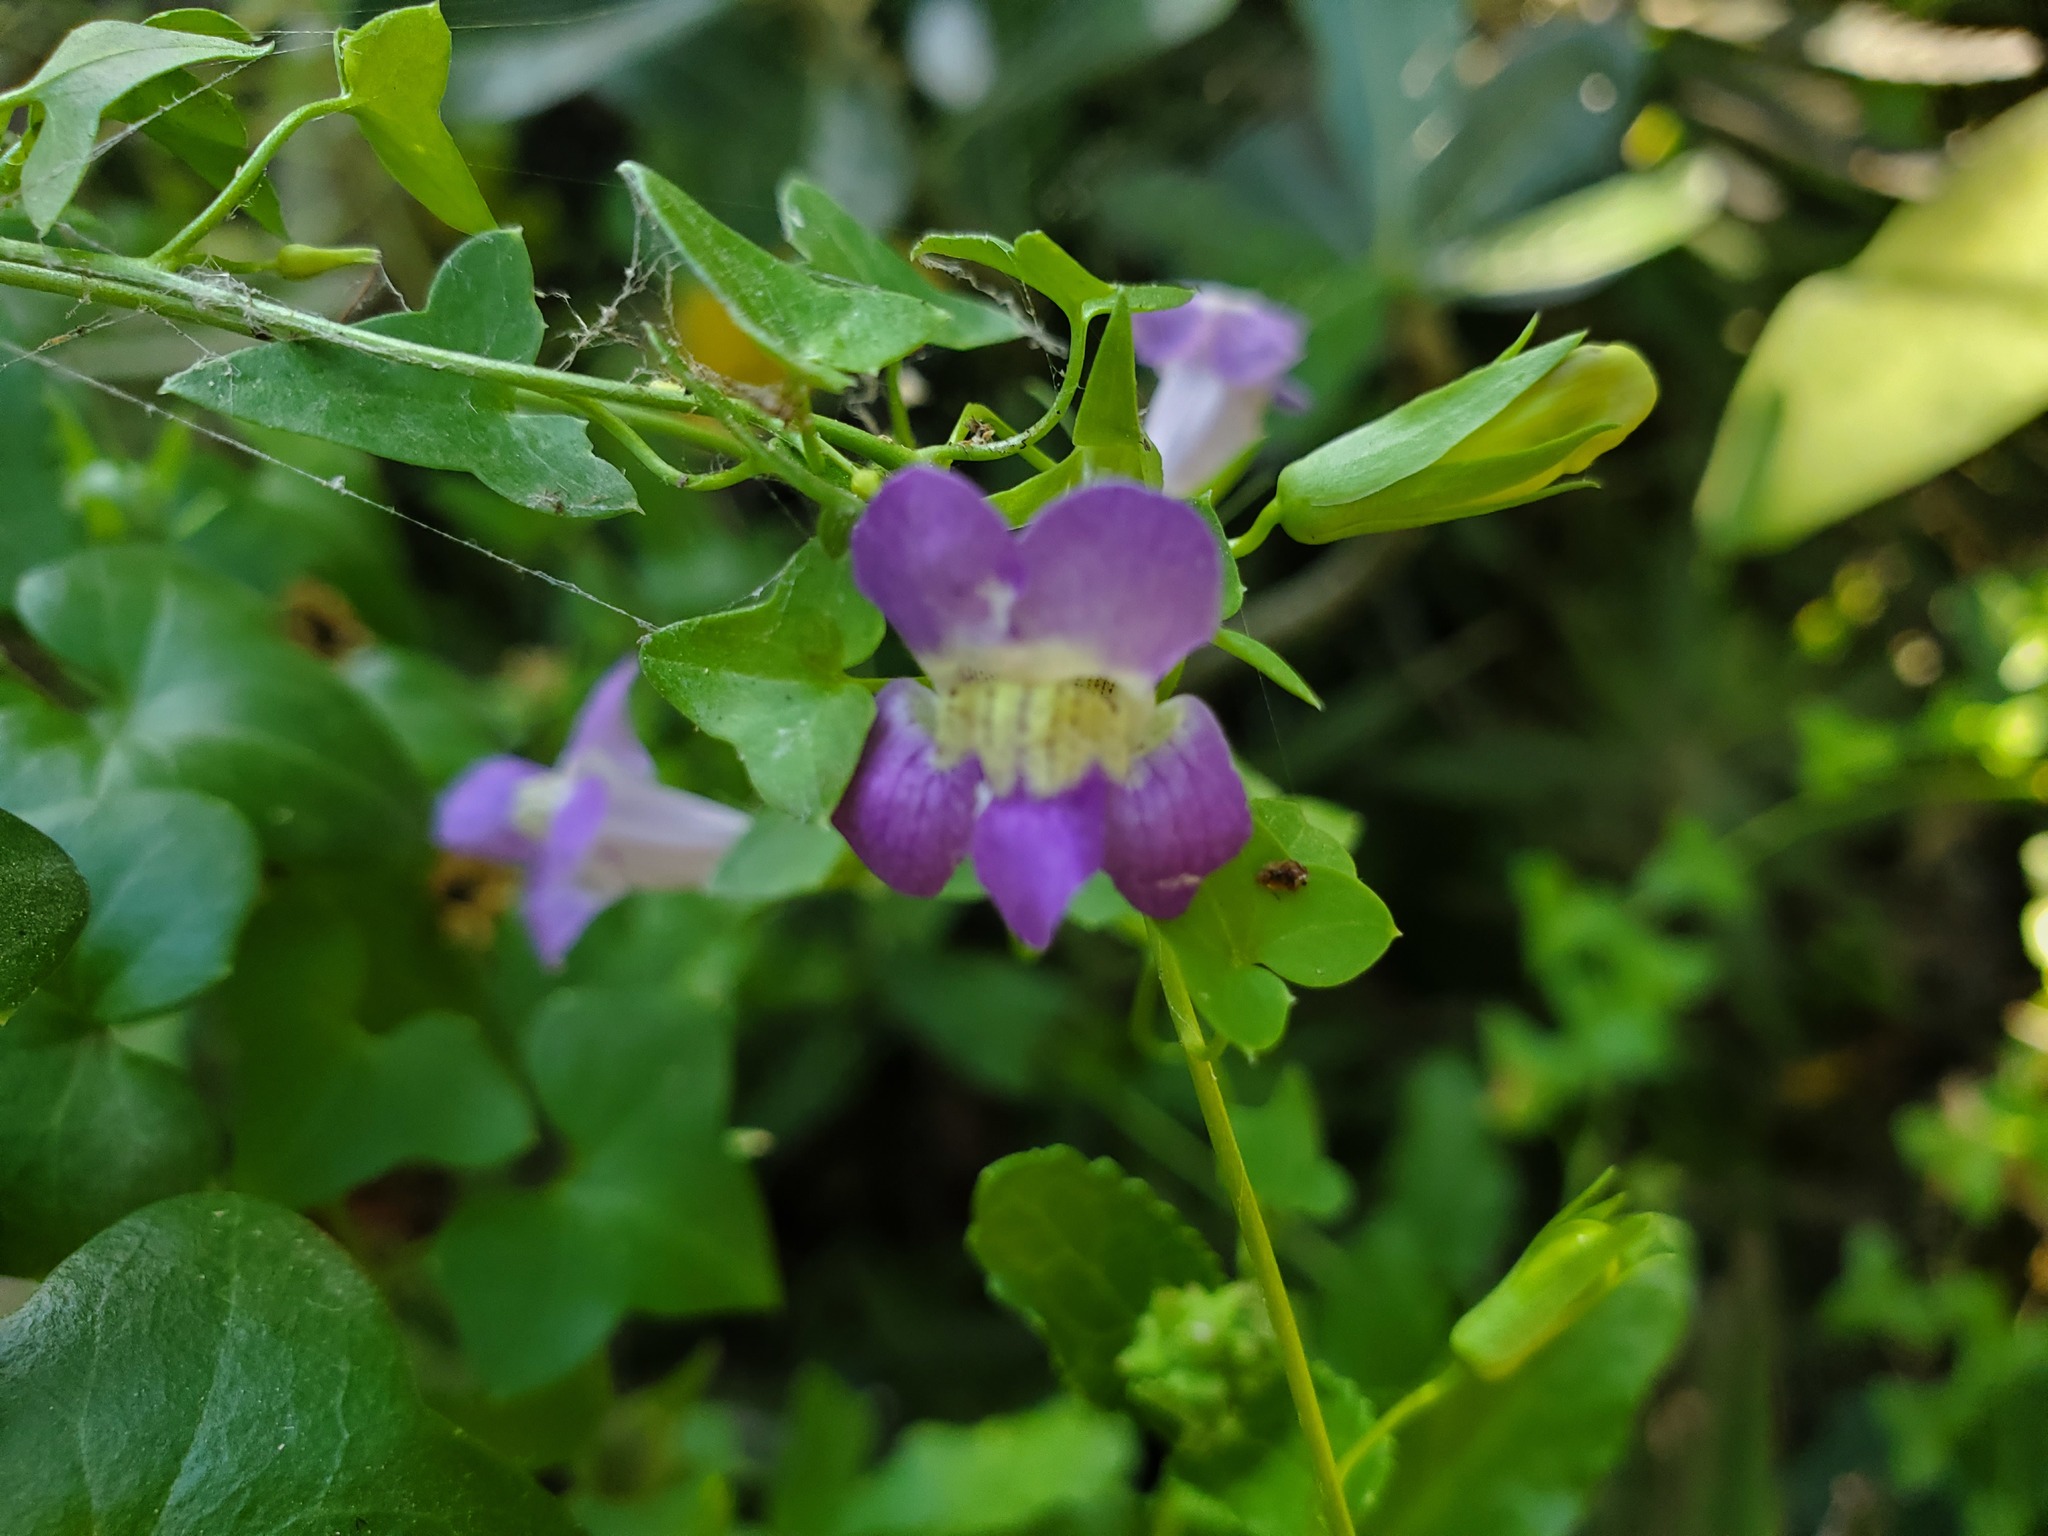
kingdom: Plantae
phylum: Tracheophyta
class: Magnoliopsida
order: Lamiales
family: Plantaginaceae
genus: Maurandella
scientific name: Maurandella antirrhiniflora
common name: Violet twining-snapdragon
